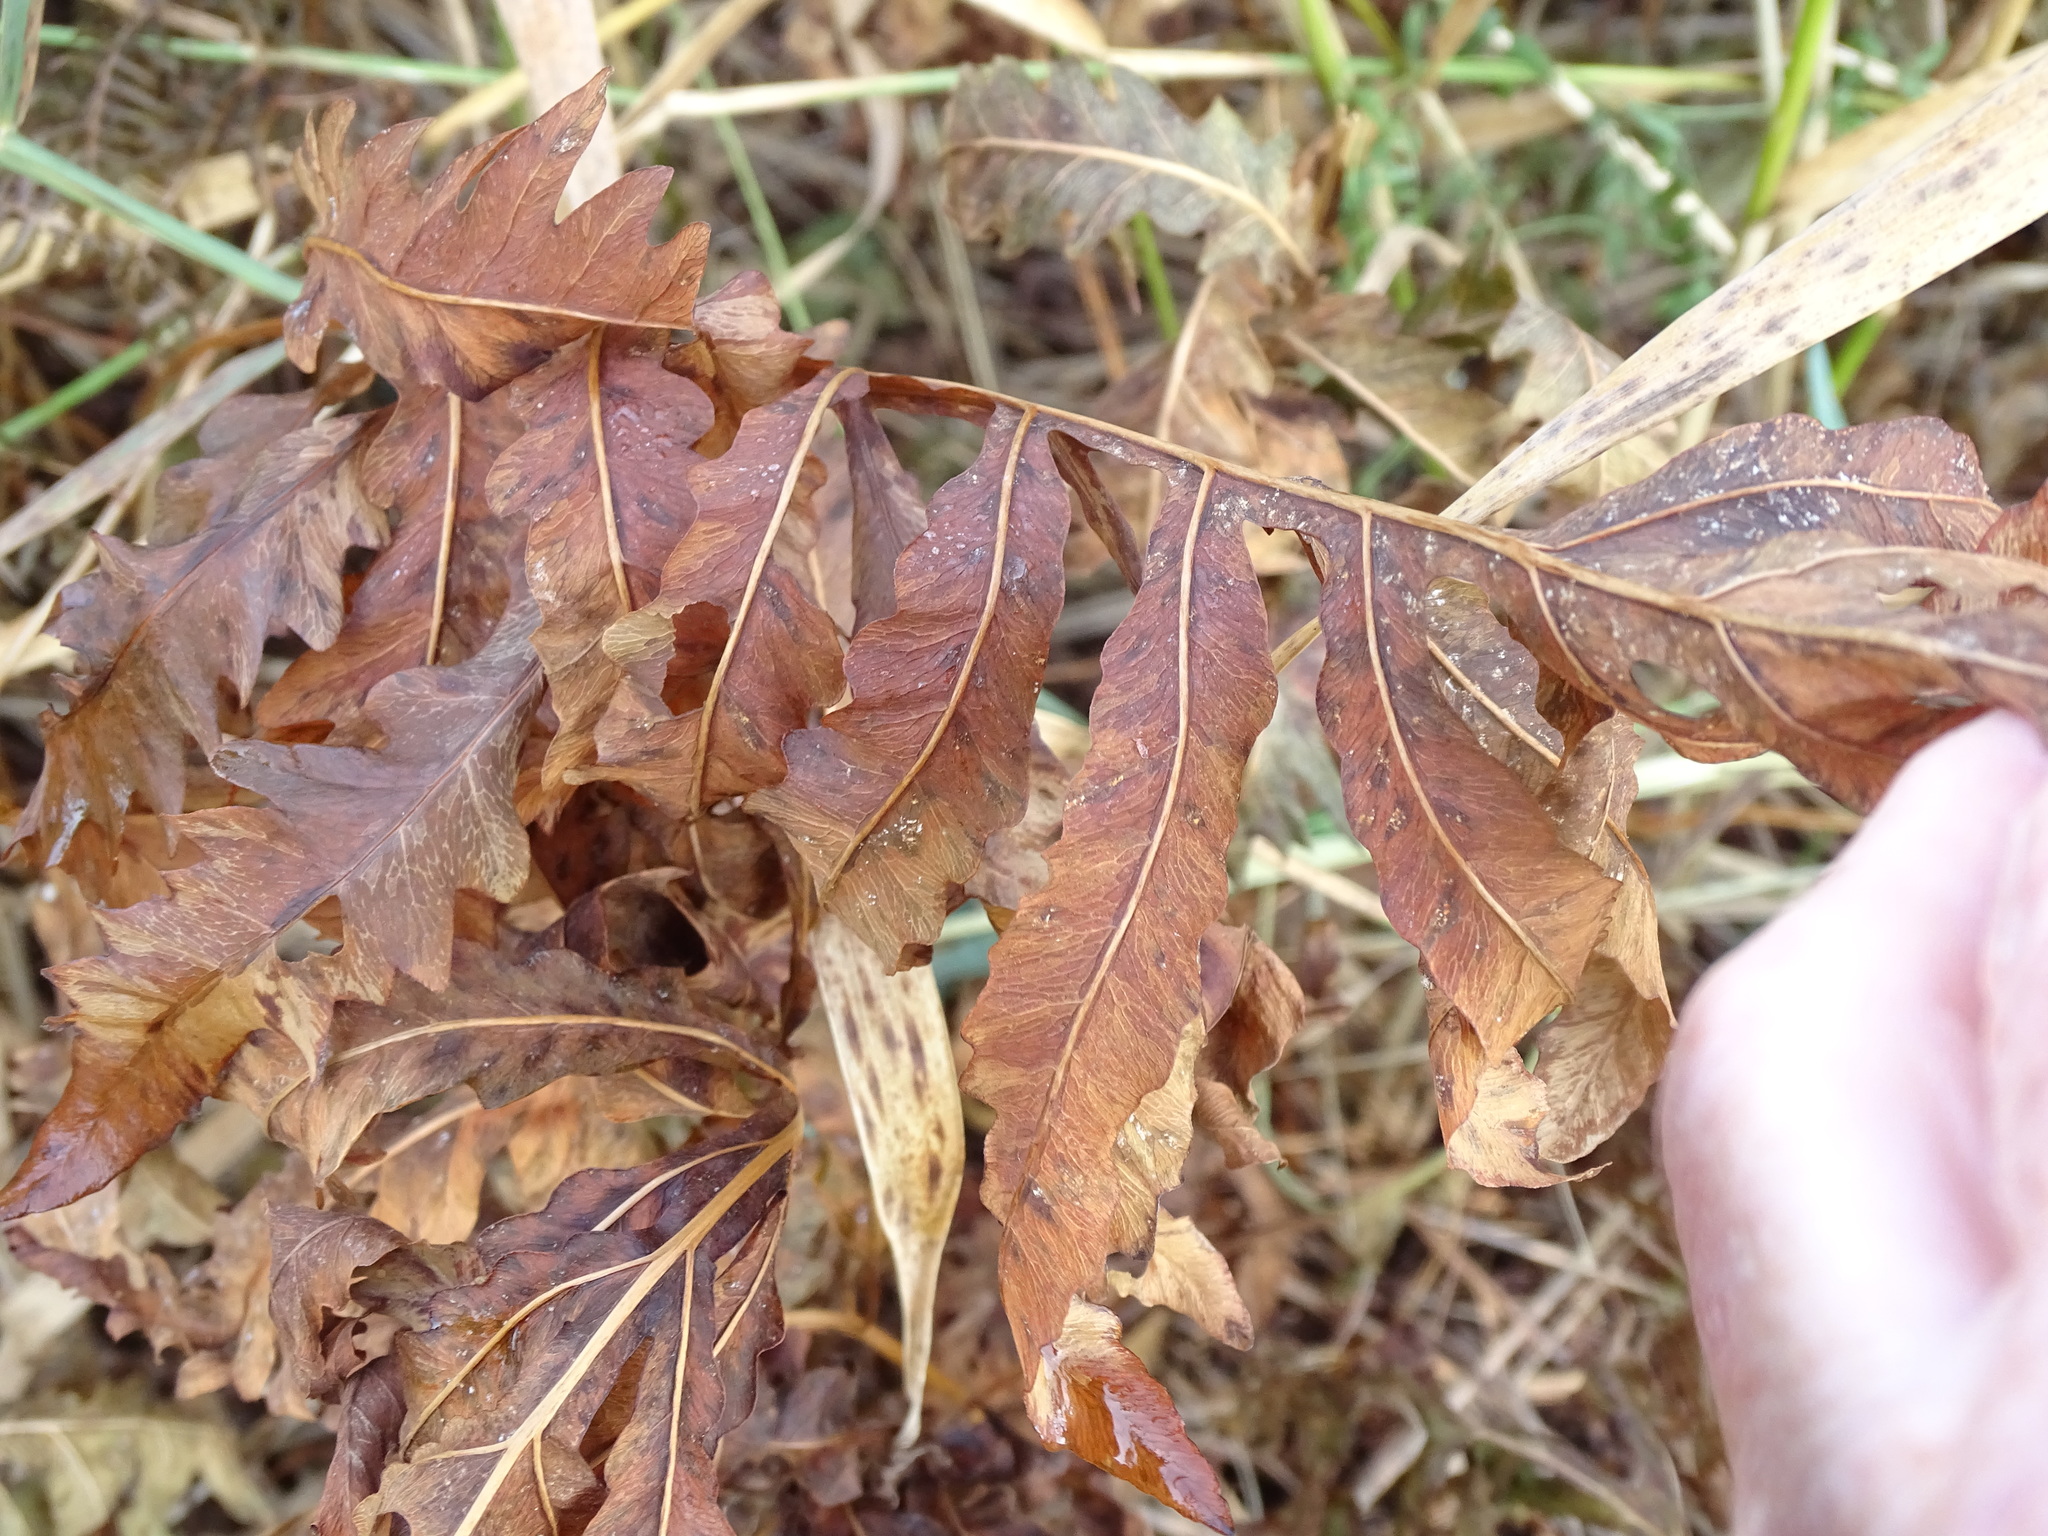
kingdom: Plantae
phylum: Tracheophyta
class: Polypodiopsida
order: Polypodiales
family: Onocleaceae
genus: Onoclea
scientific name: Onoclea sensibilis
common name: Sensitive fern
